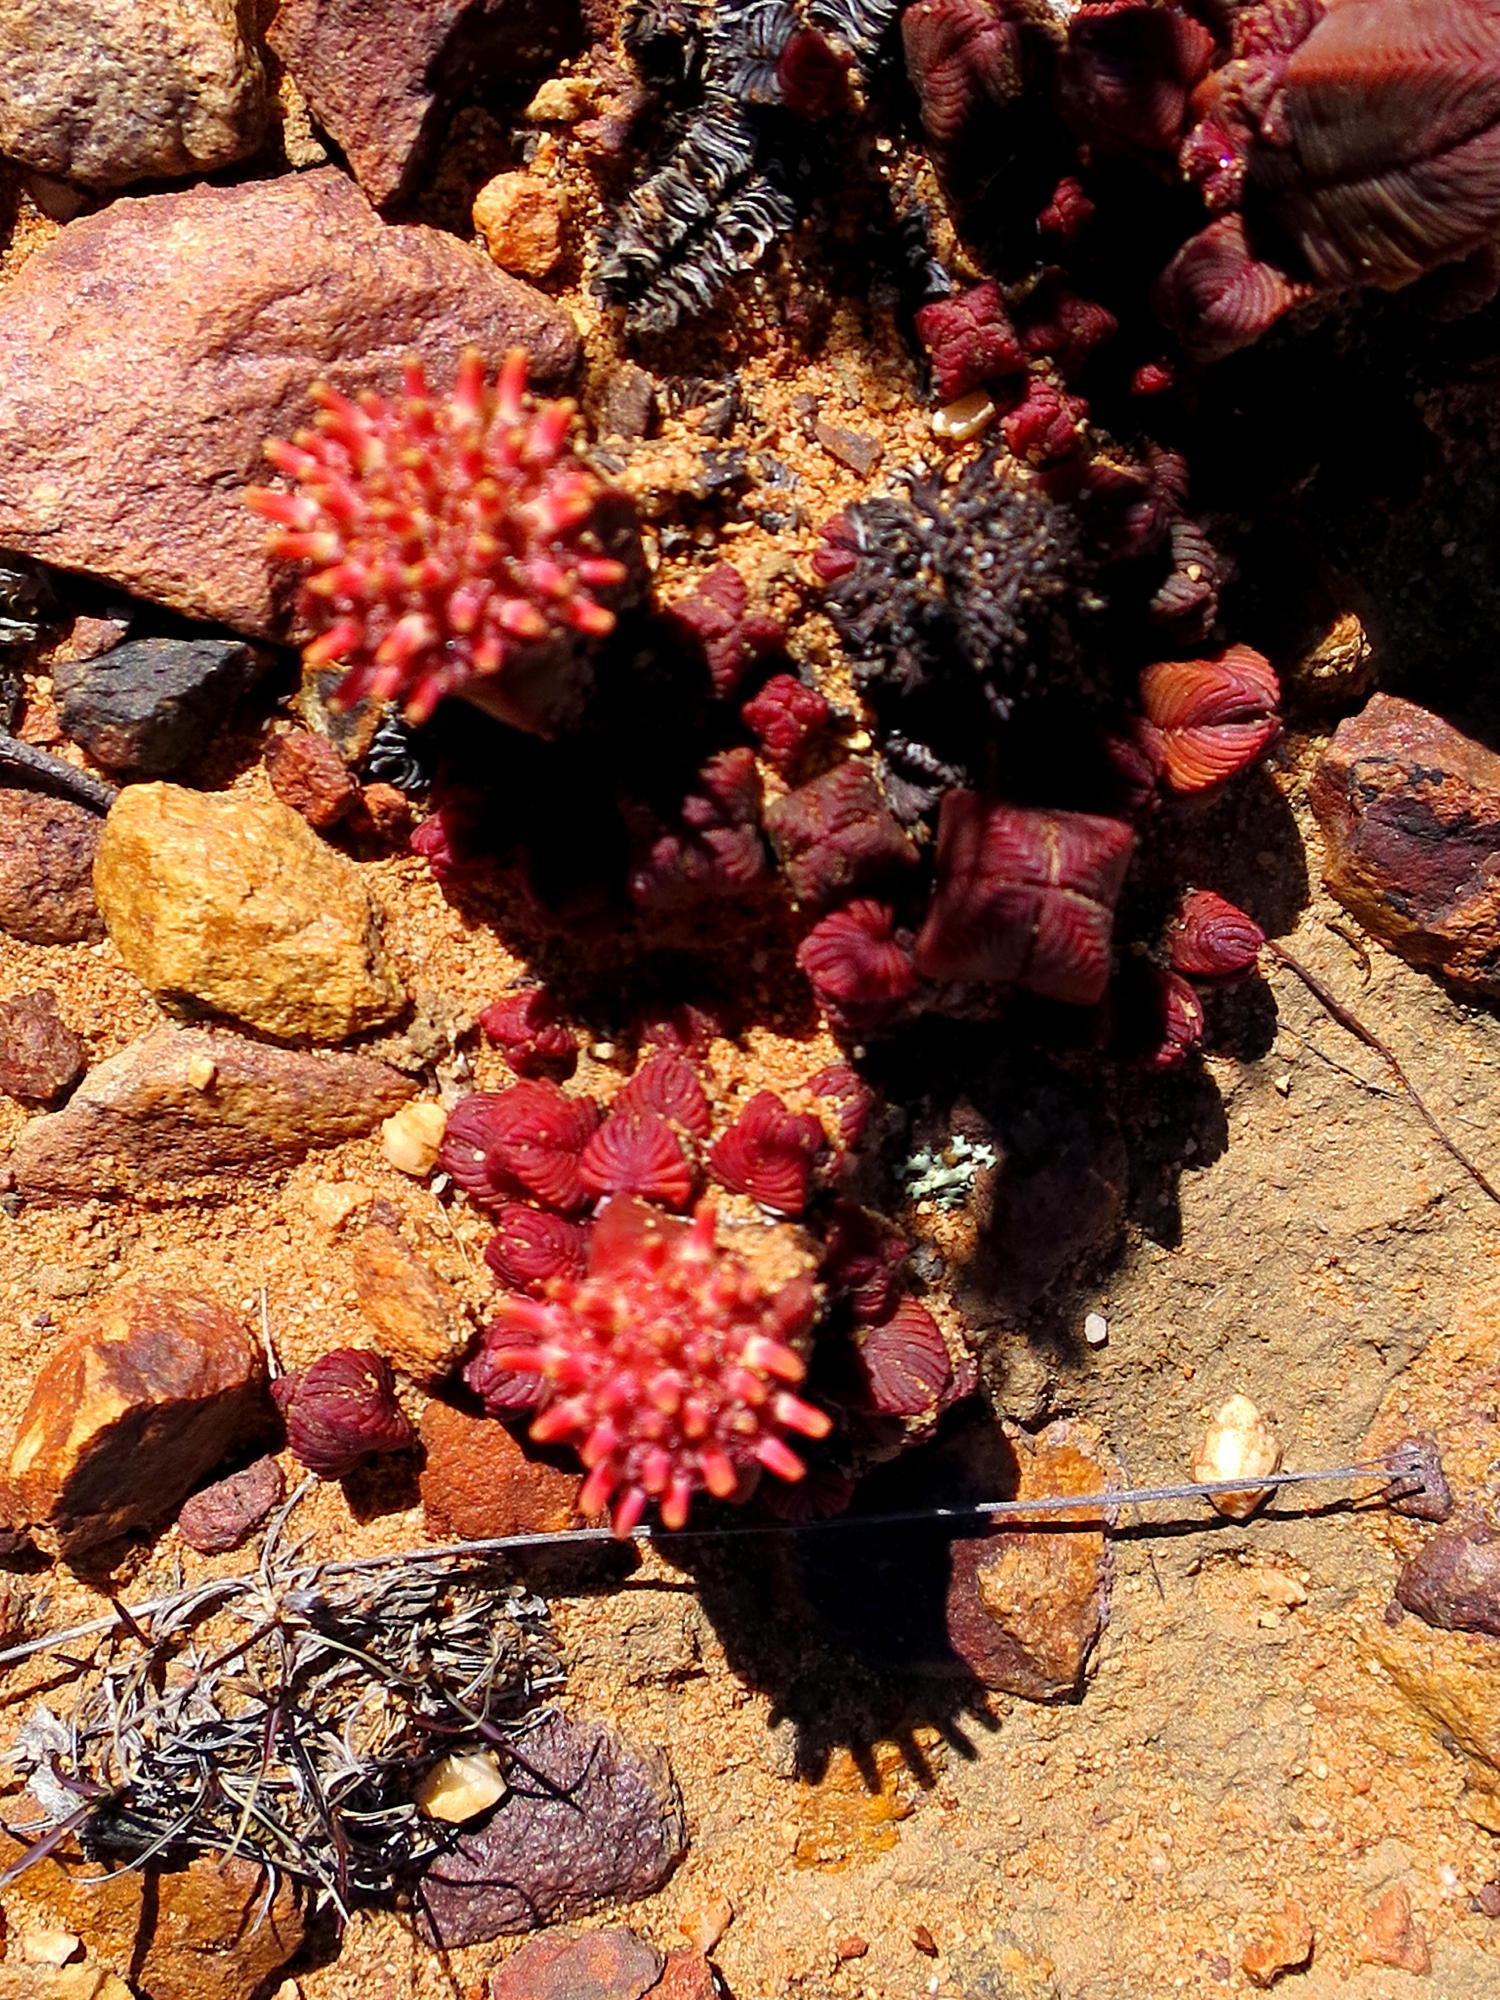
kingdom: Plantae
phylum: Tracheophyta
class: Magnoliopsida
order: Saxifragales
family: Crassulaceae
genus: Crassula
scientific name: Crassula pyramidalis
